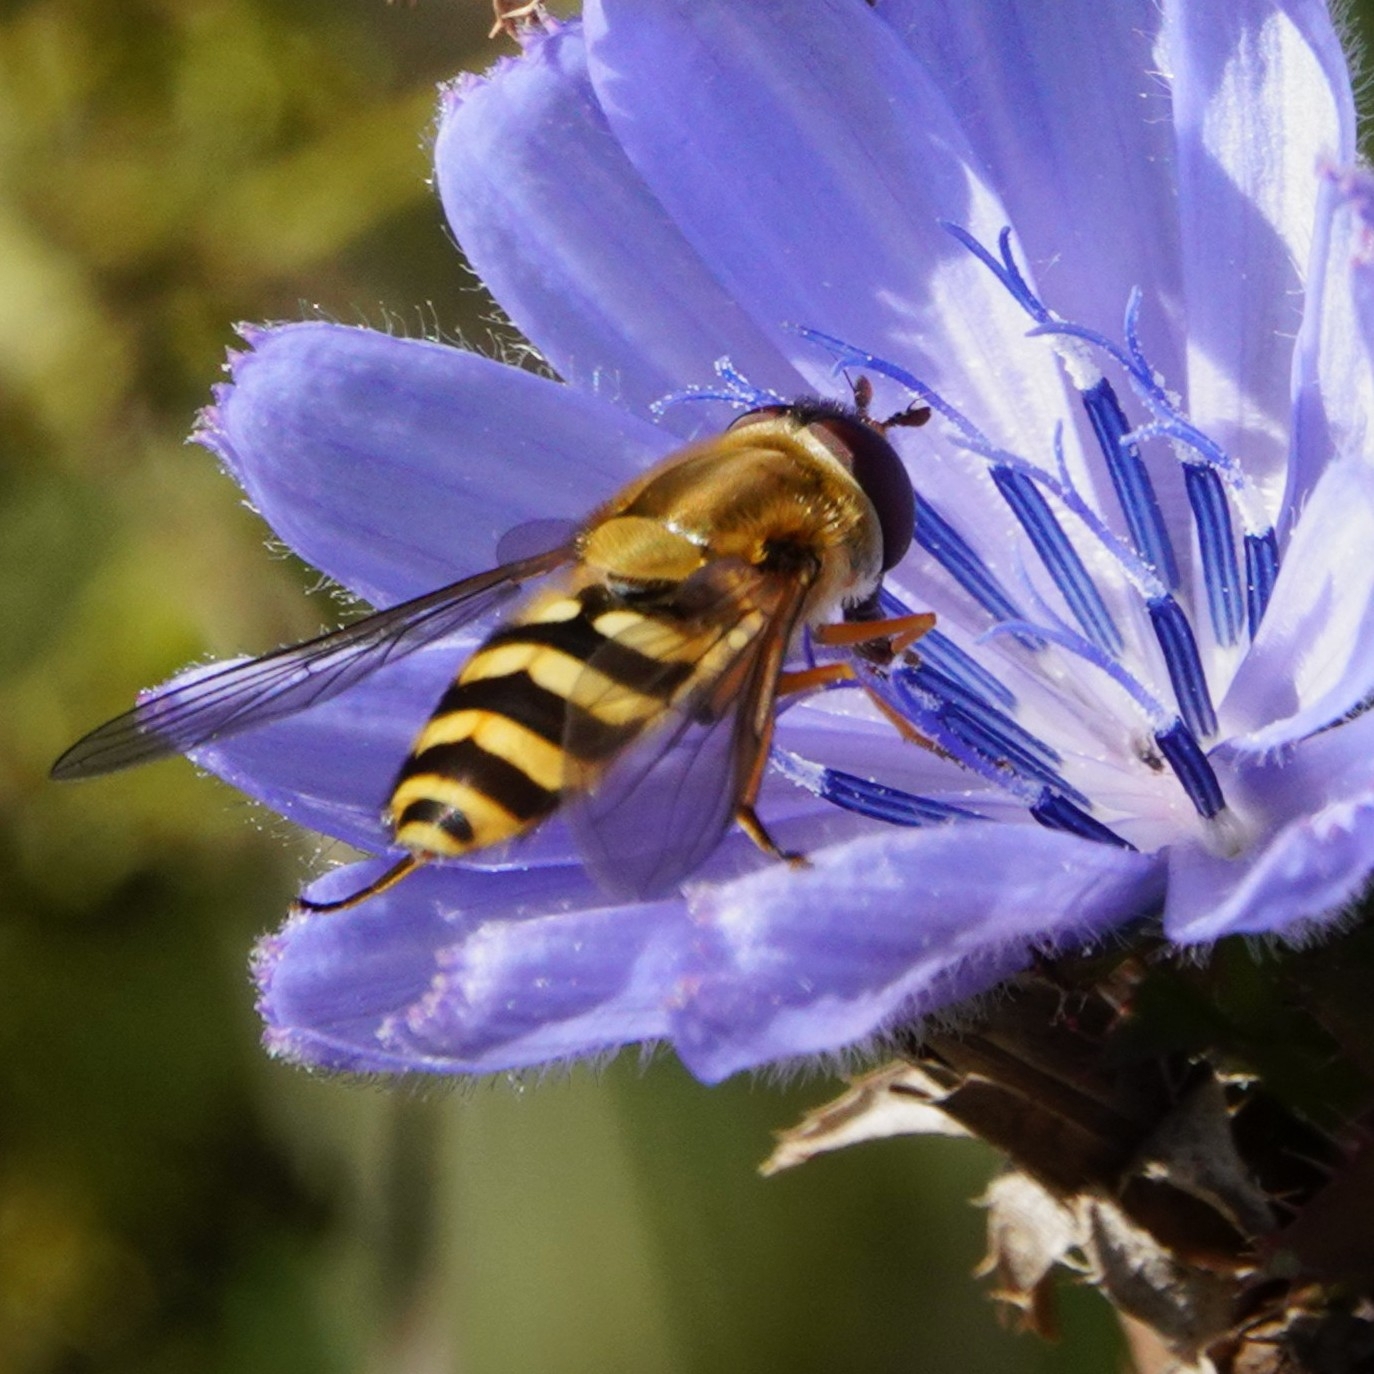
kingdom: Animalia
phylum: Arthropoda
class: Insecta
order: Diptera
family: Syrphidae
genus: Syrphus
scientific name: Syrphus
